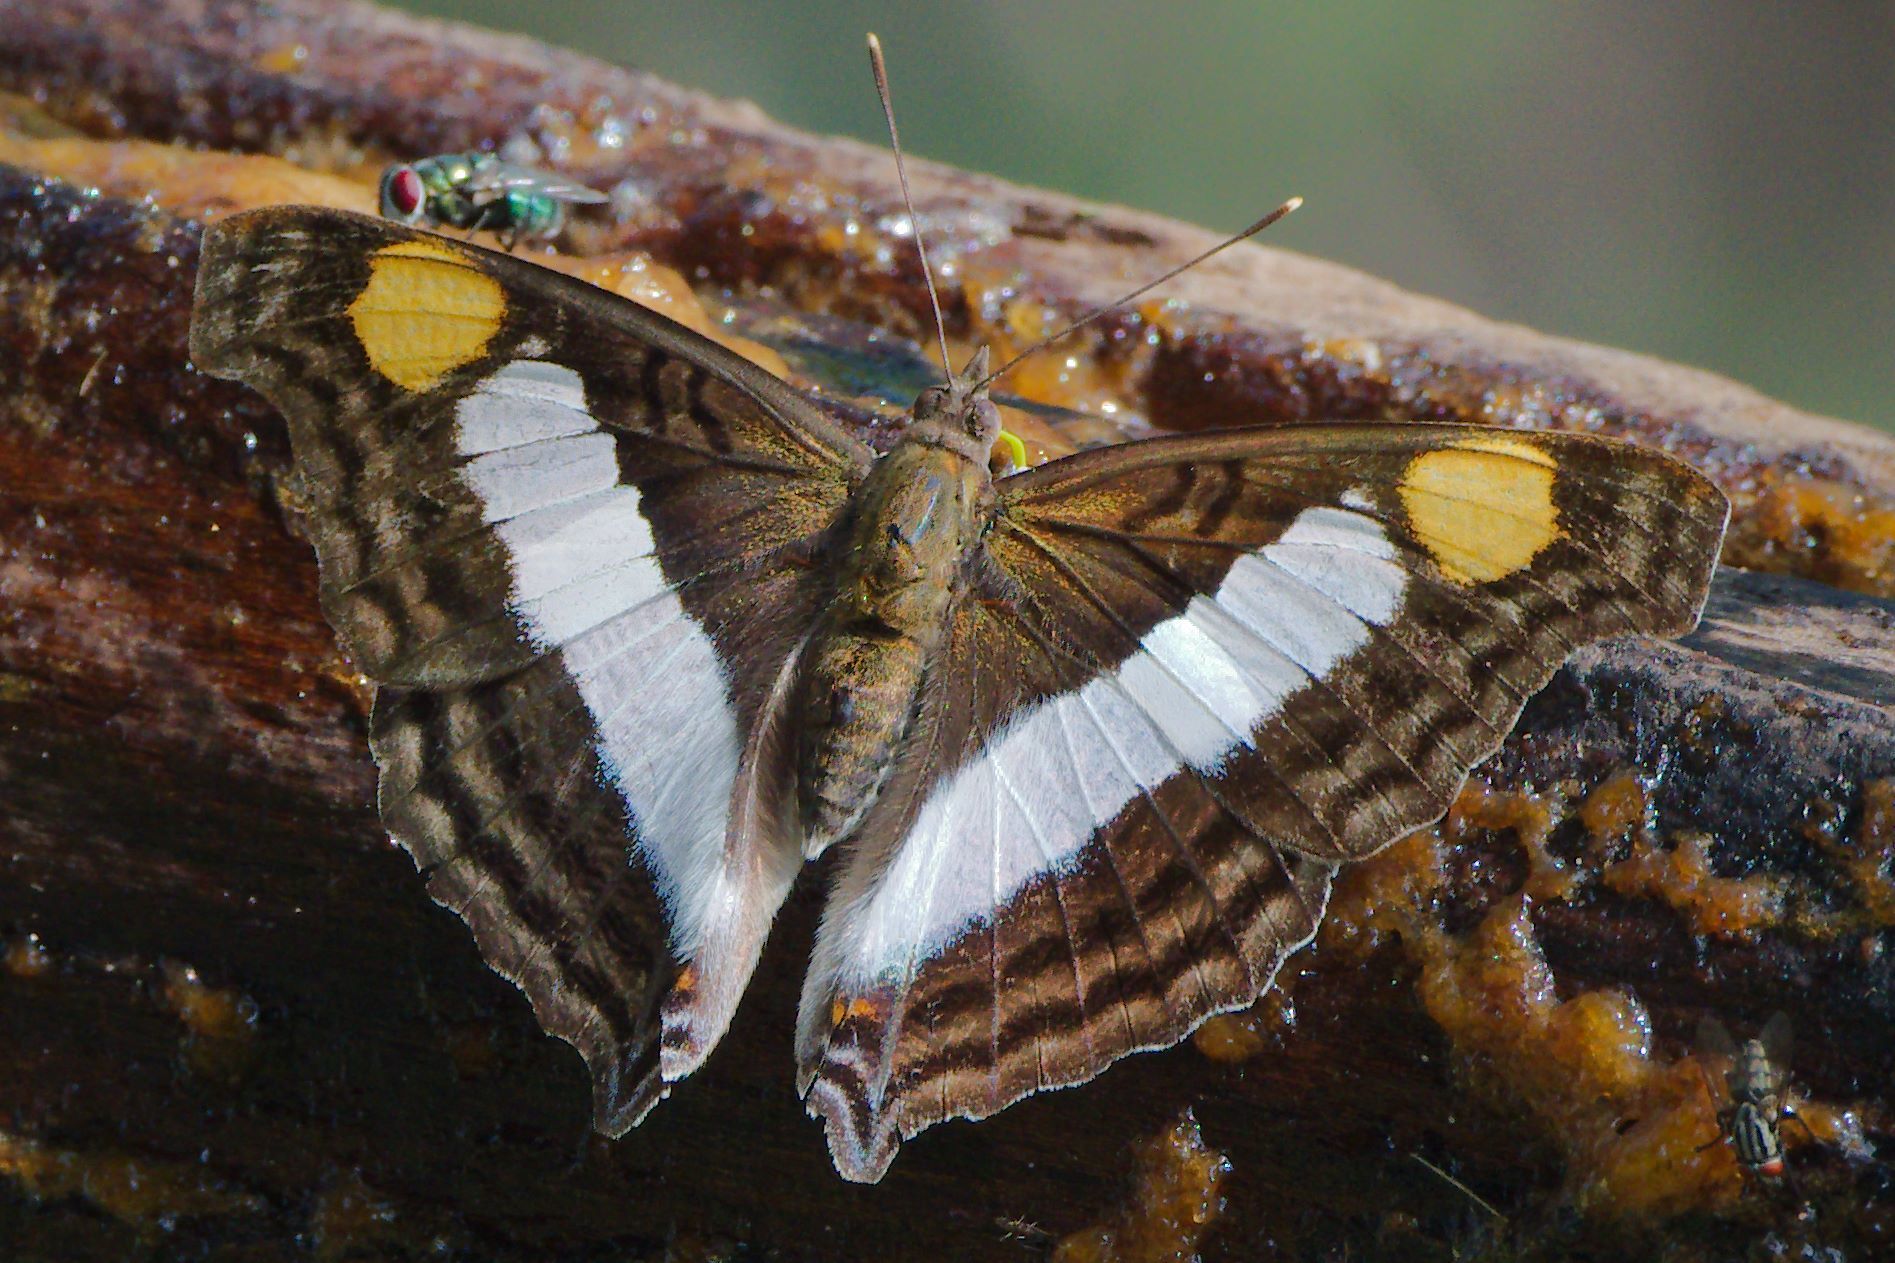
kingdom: Animalia
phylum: Arthropoda
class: Insecta
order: Lepidoptera
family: Nymphalidae
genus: Doxocopa
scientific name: Doxocopa laure
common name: Silver emperor
